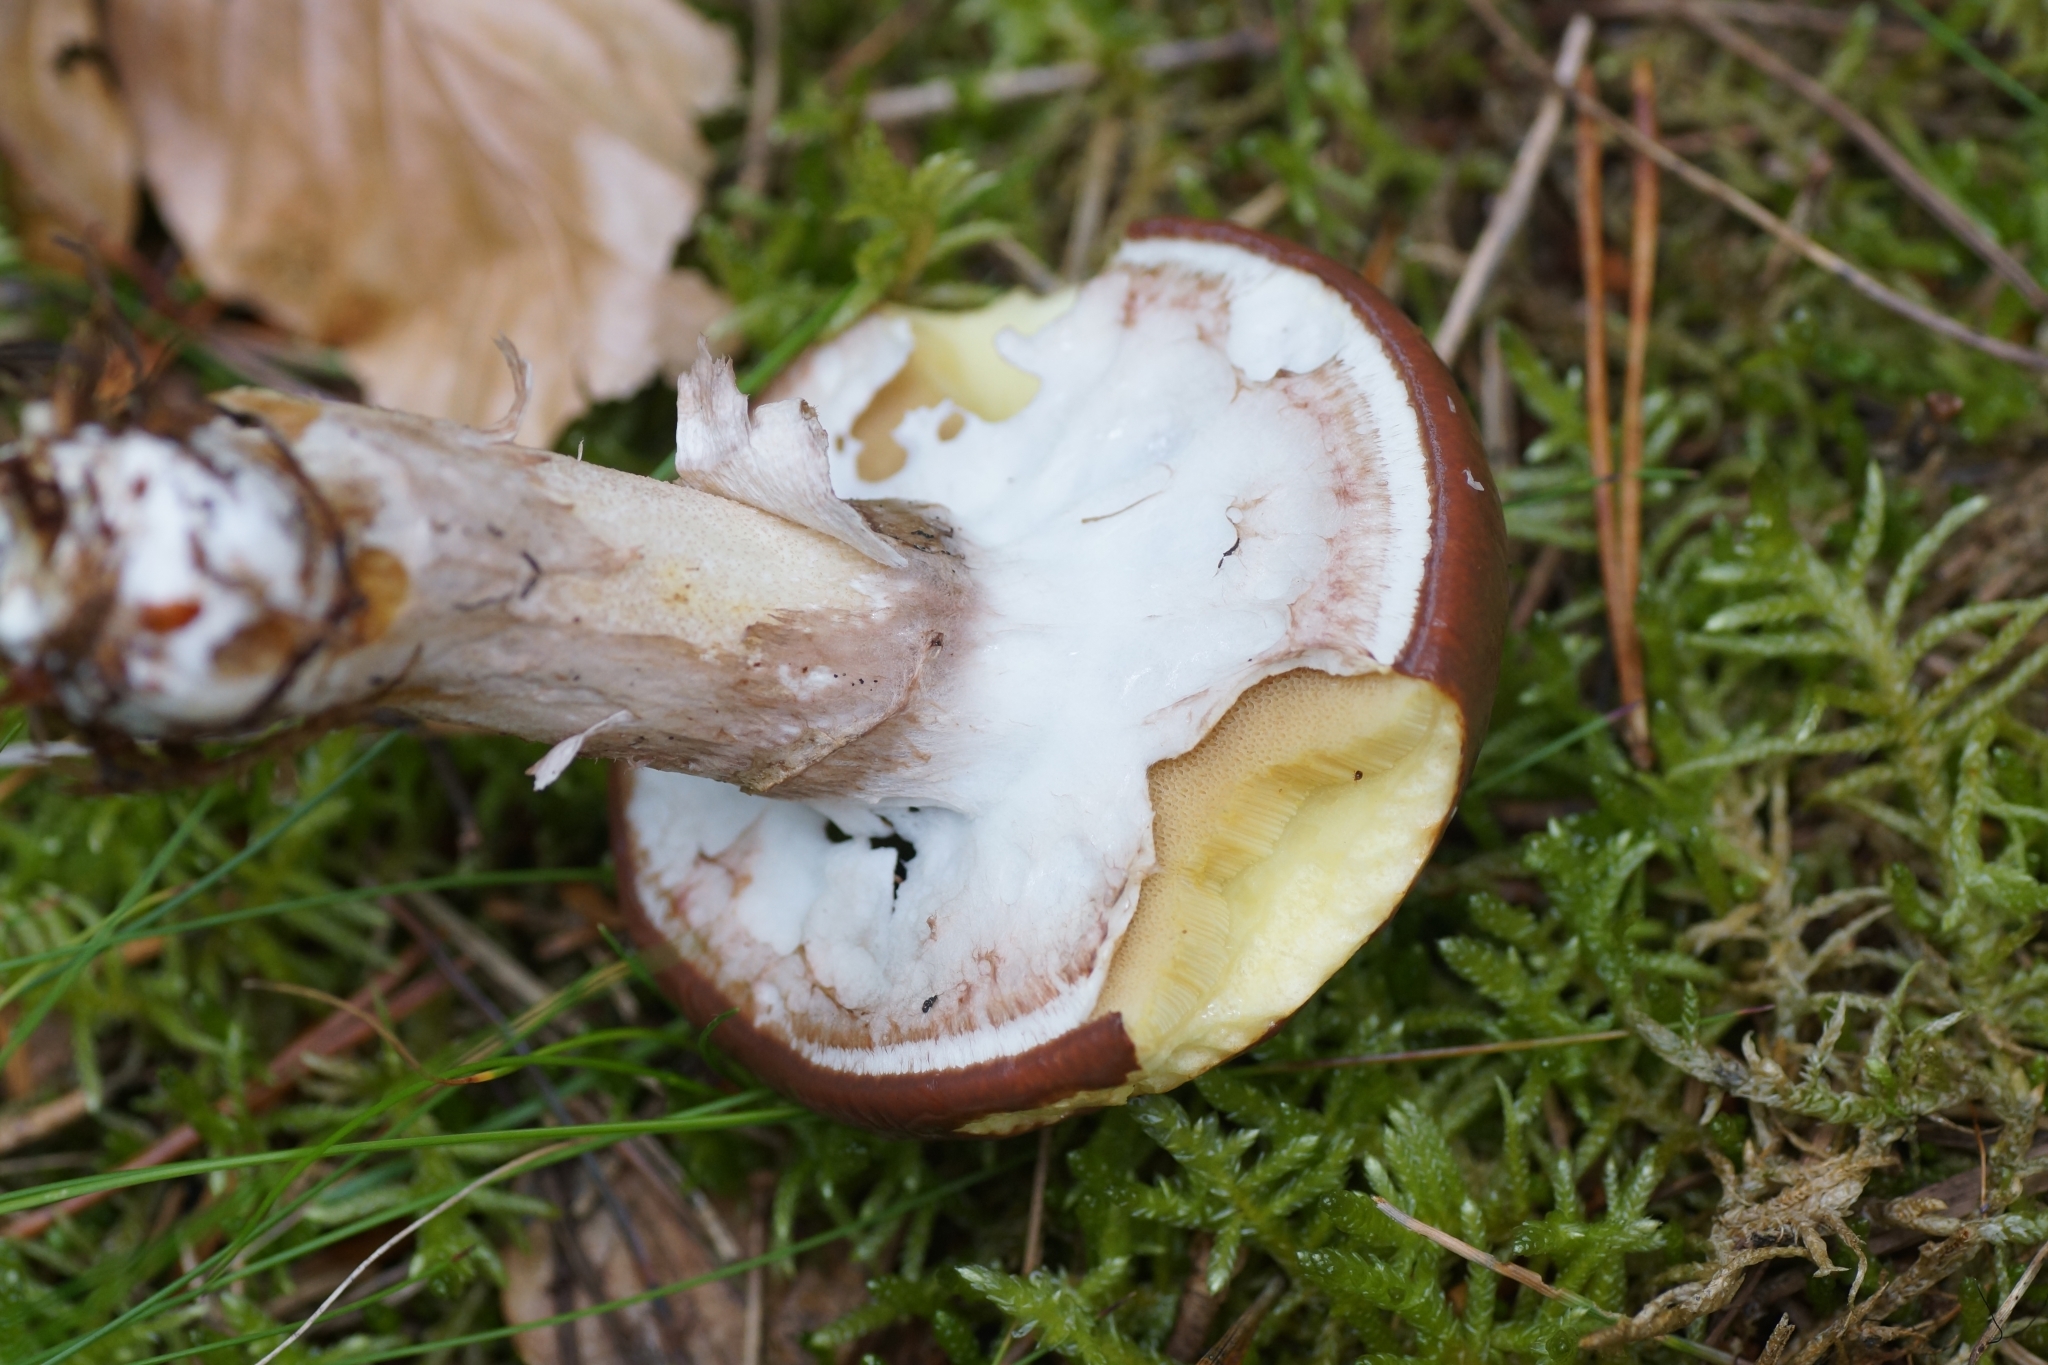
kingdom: Fungi
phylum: Basidiomycota
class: Agaricomycetes
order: Boletales
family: Suillaceae
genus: Suillus
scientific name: Suillus luteus
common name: Slippery jack
